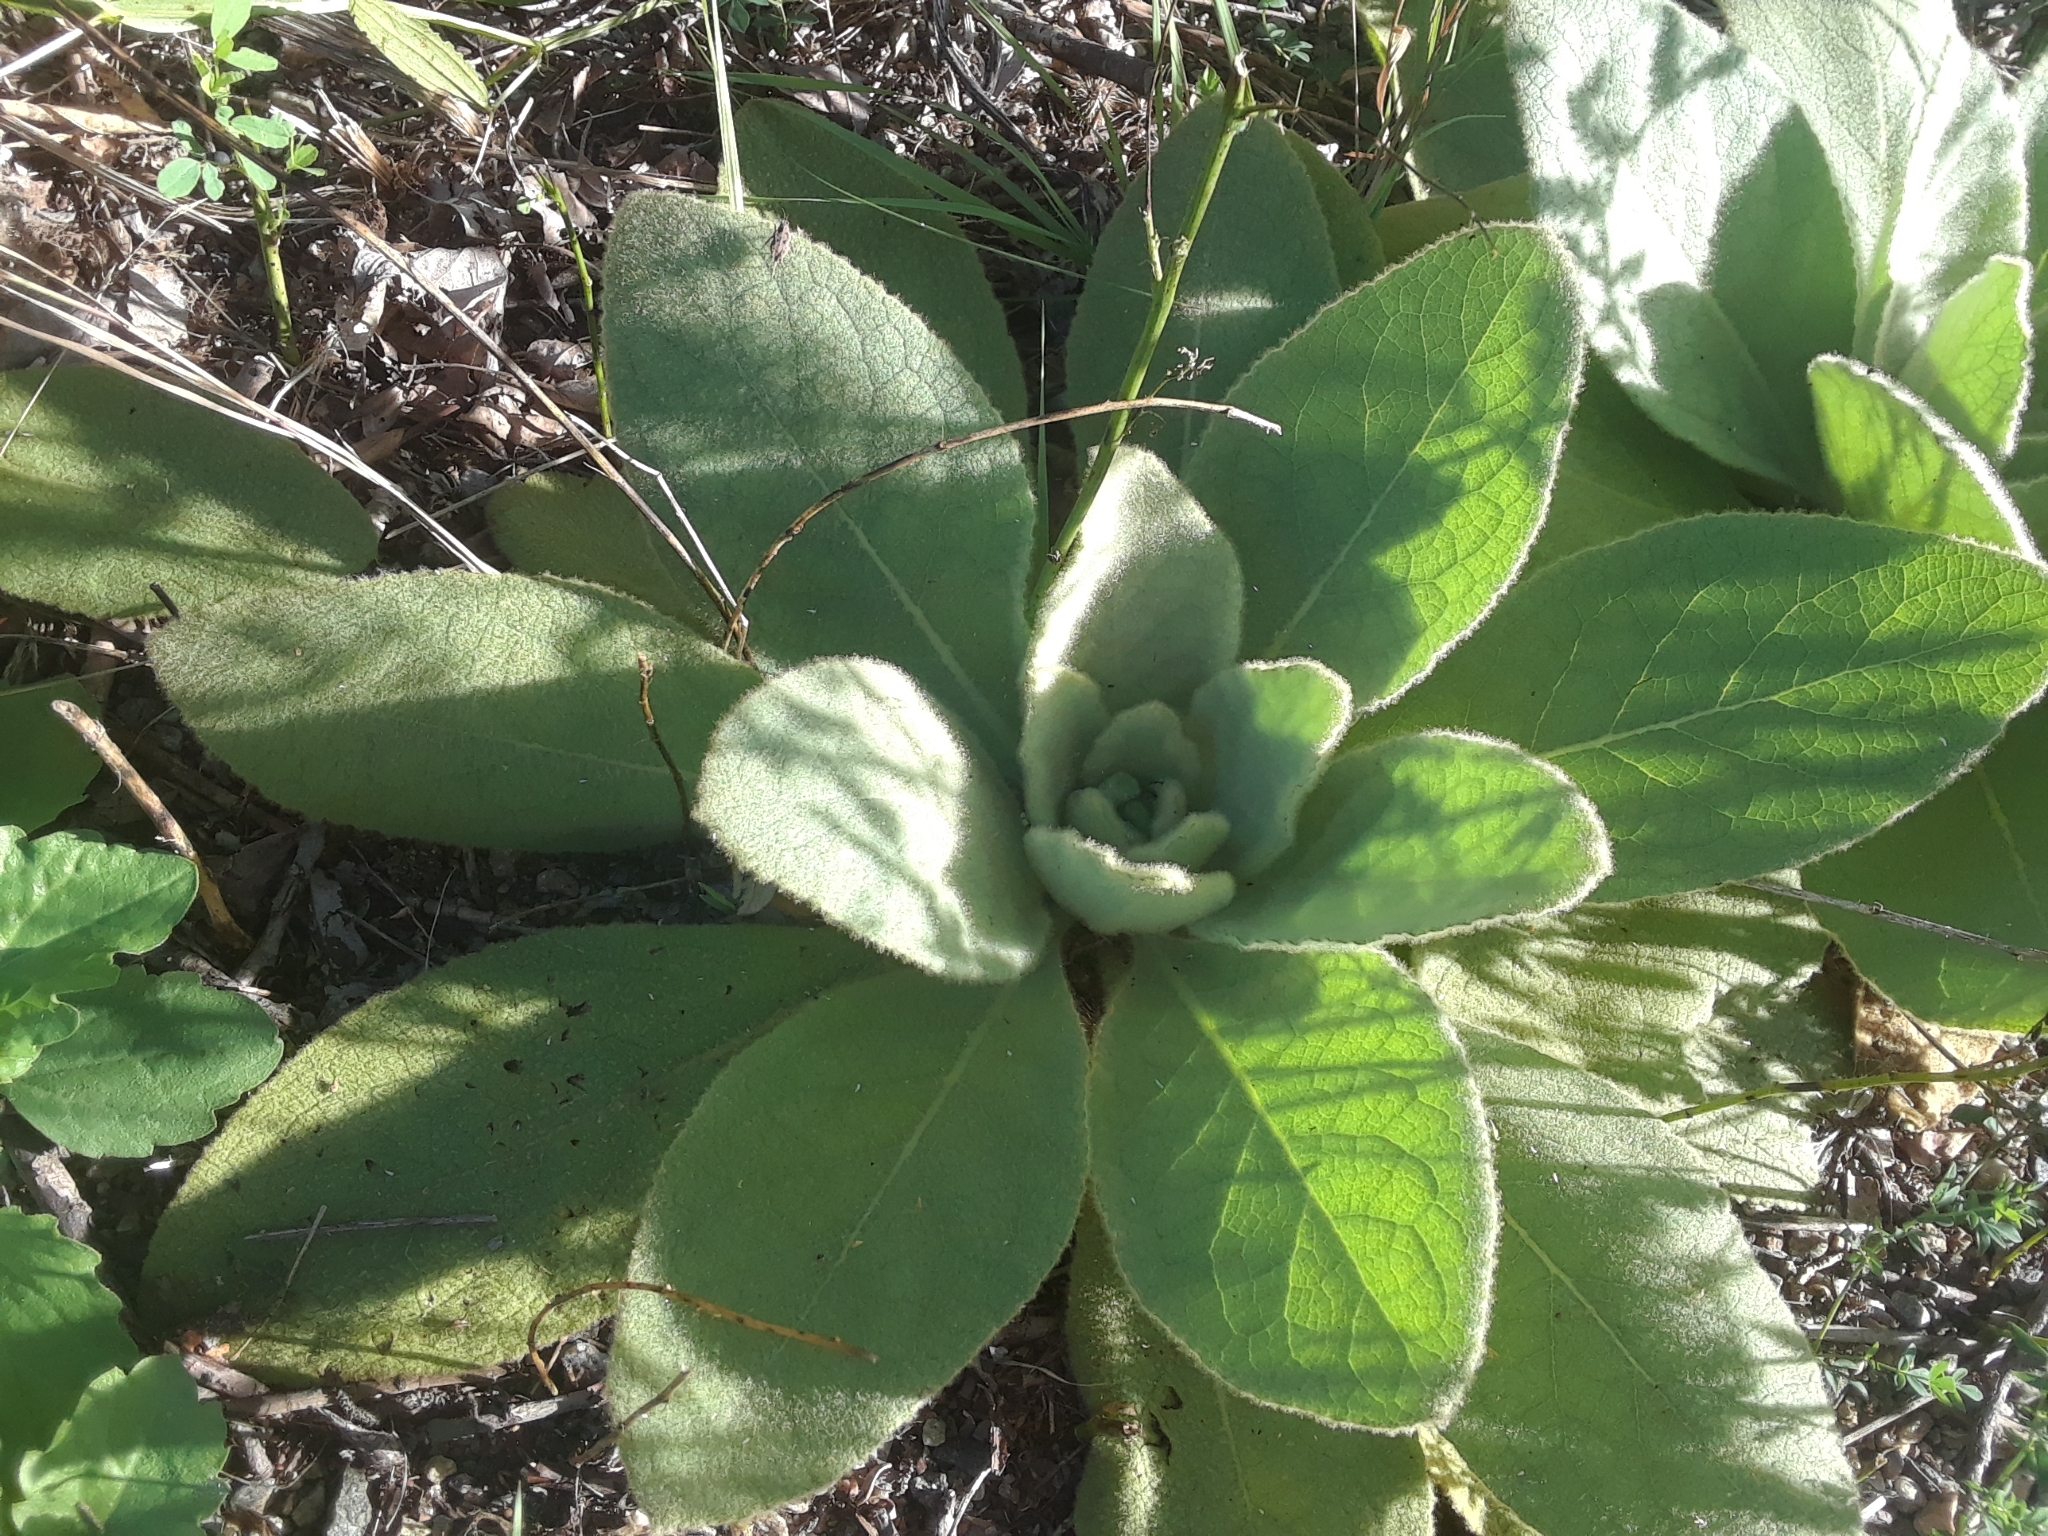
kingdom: Plantae
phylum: Tracheophyta
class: Magnoliopsida
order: Lamiales
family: Scrophulariaceae
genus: Verbascum
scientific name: Verbascum thapsus
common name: Common mullein
